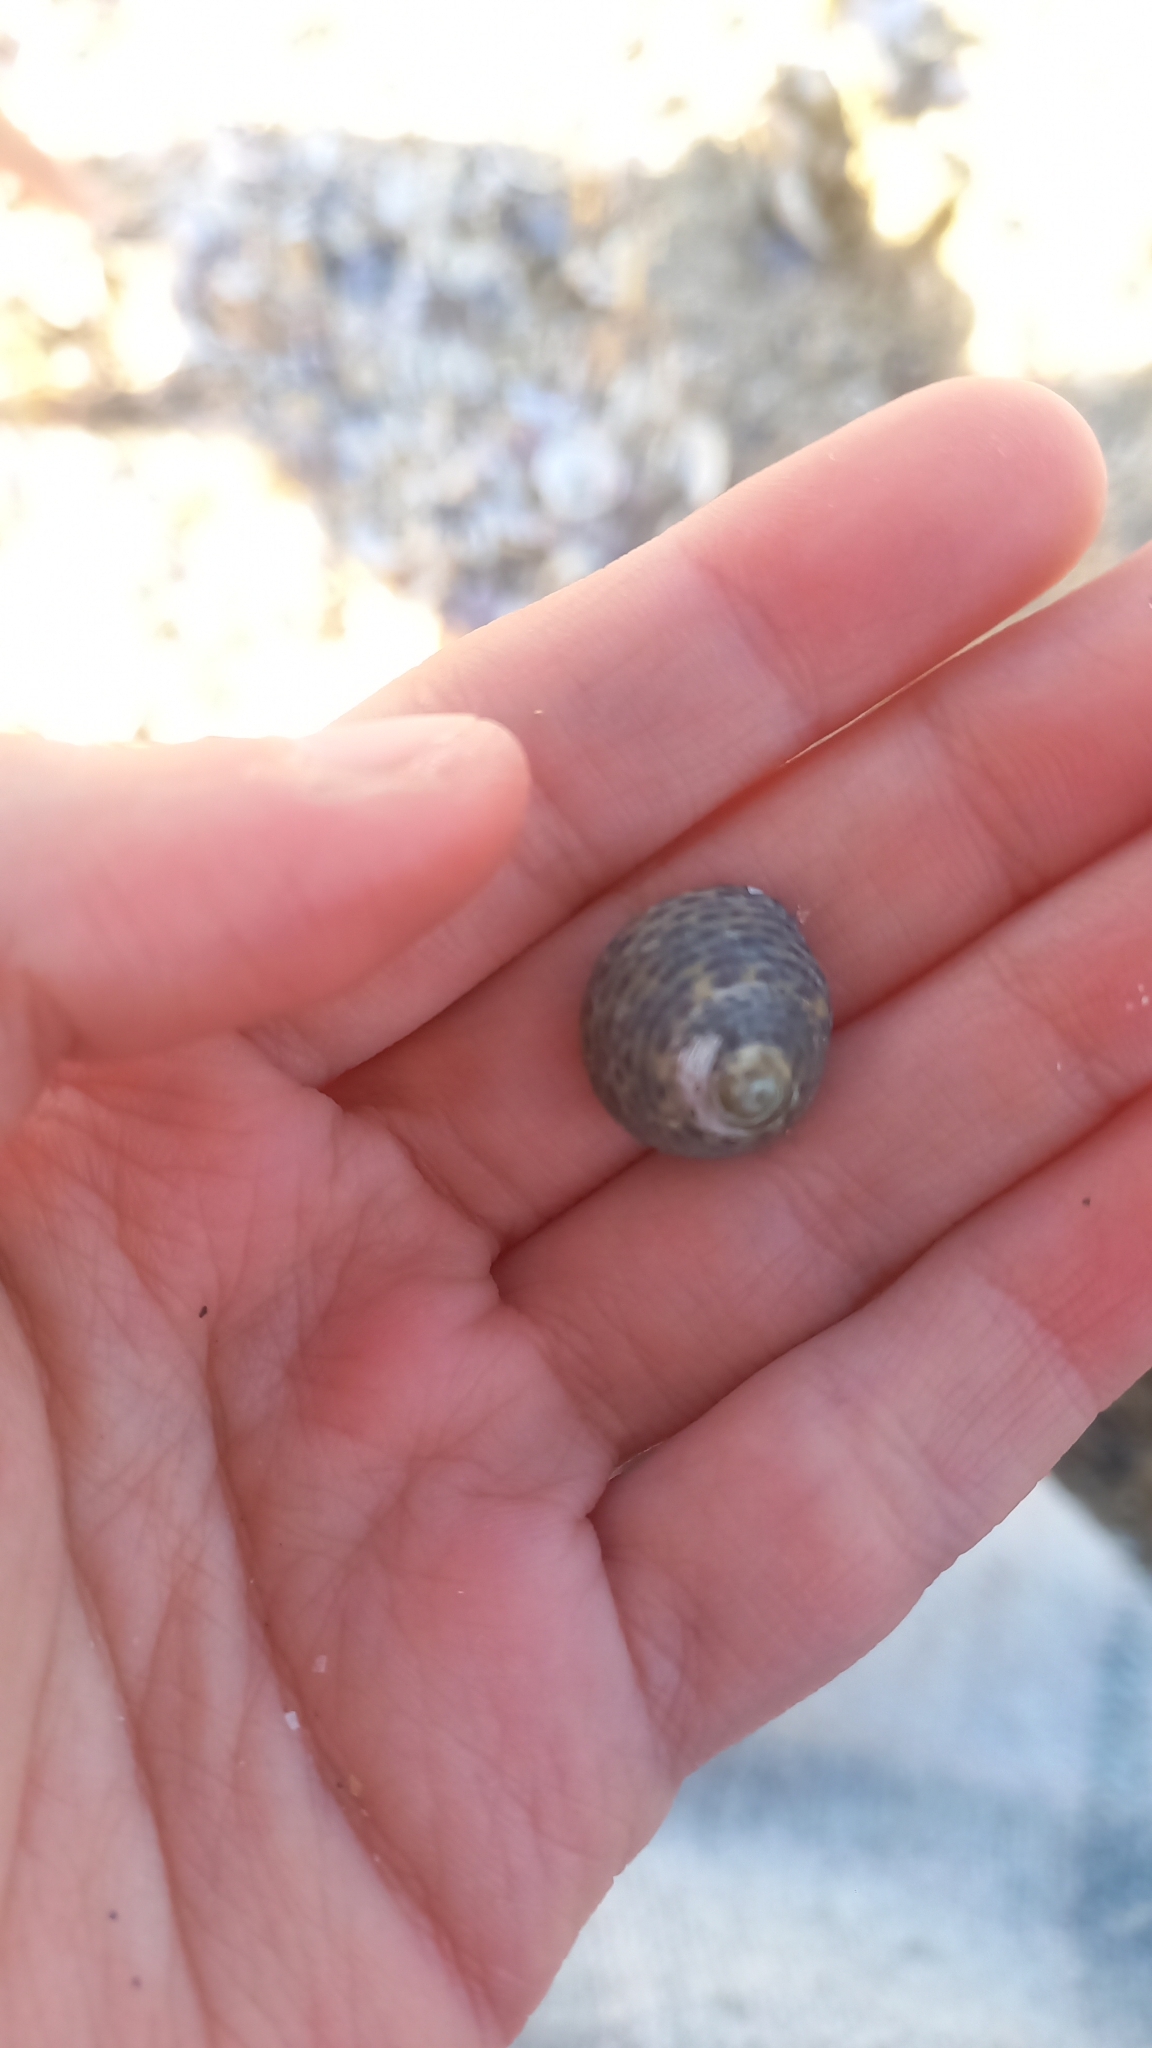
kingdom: Animalia
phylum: Mollusca
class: Gastropoda
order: Trochida
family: Trochidae
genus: Phorcus
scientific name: Phorcus turbinatus
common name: Turbinate monodont
